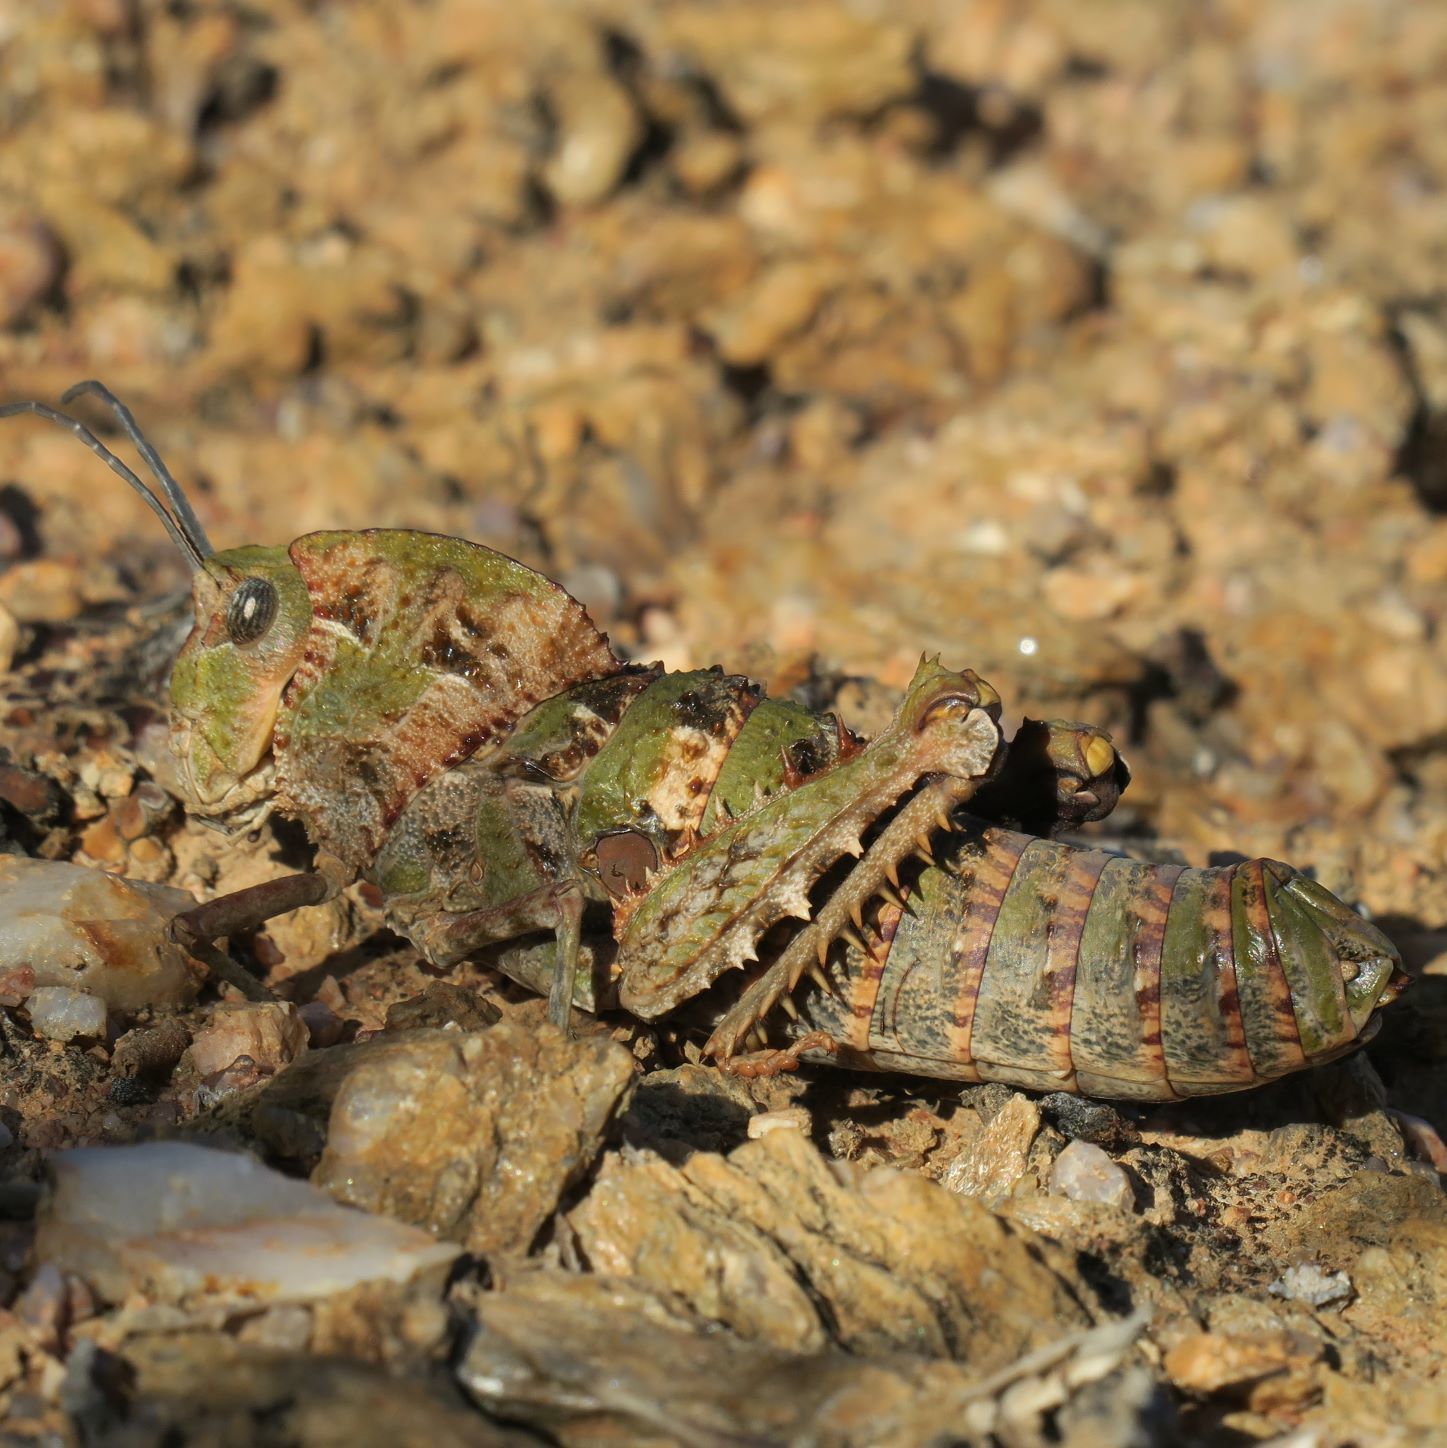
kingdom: Animalia
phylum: Arthropoda
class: Insecta
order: Orthoptera
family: Pamphagidae
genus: Porthetis
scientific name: Porthetis carinata
